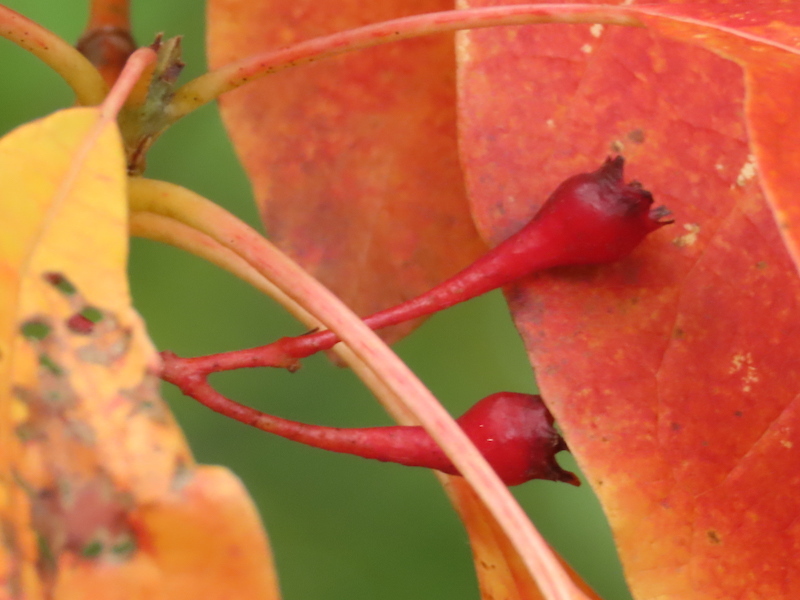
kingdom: Plantae
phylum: Tracheophyta
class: Magnoliopsida
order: Laurales
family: Lauraceae
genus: Sassafras
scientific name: Sassafras albidum
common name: Sassafras
